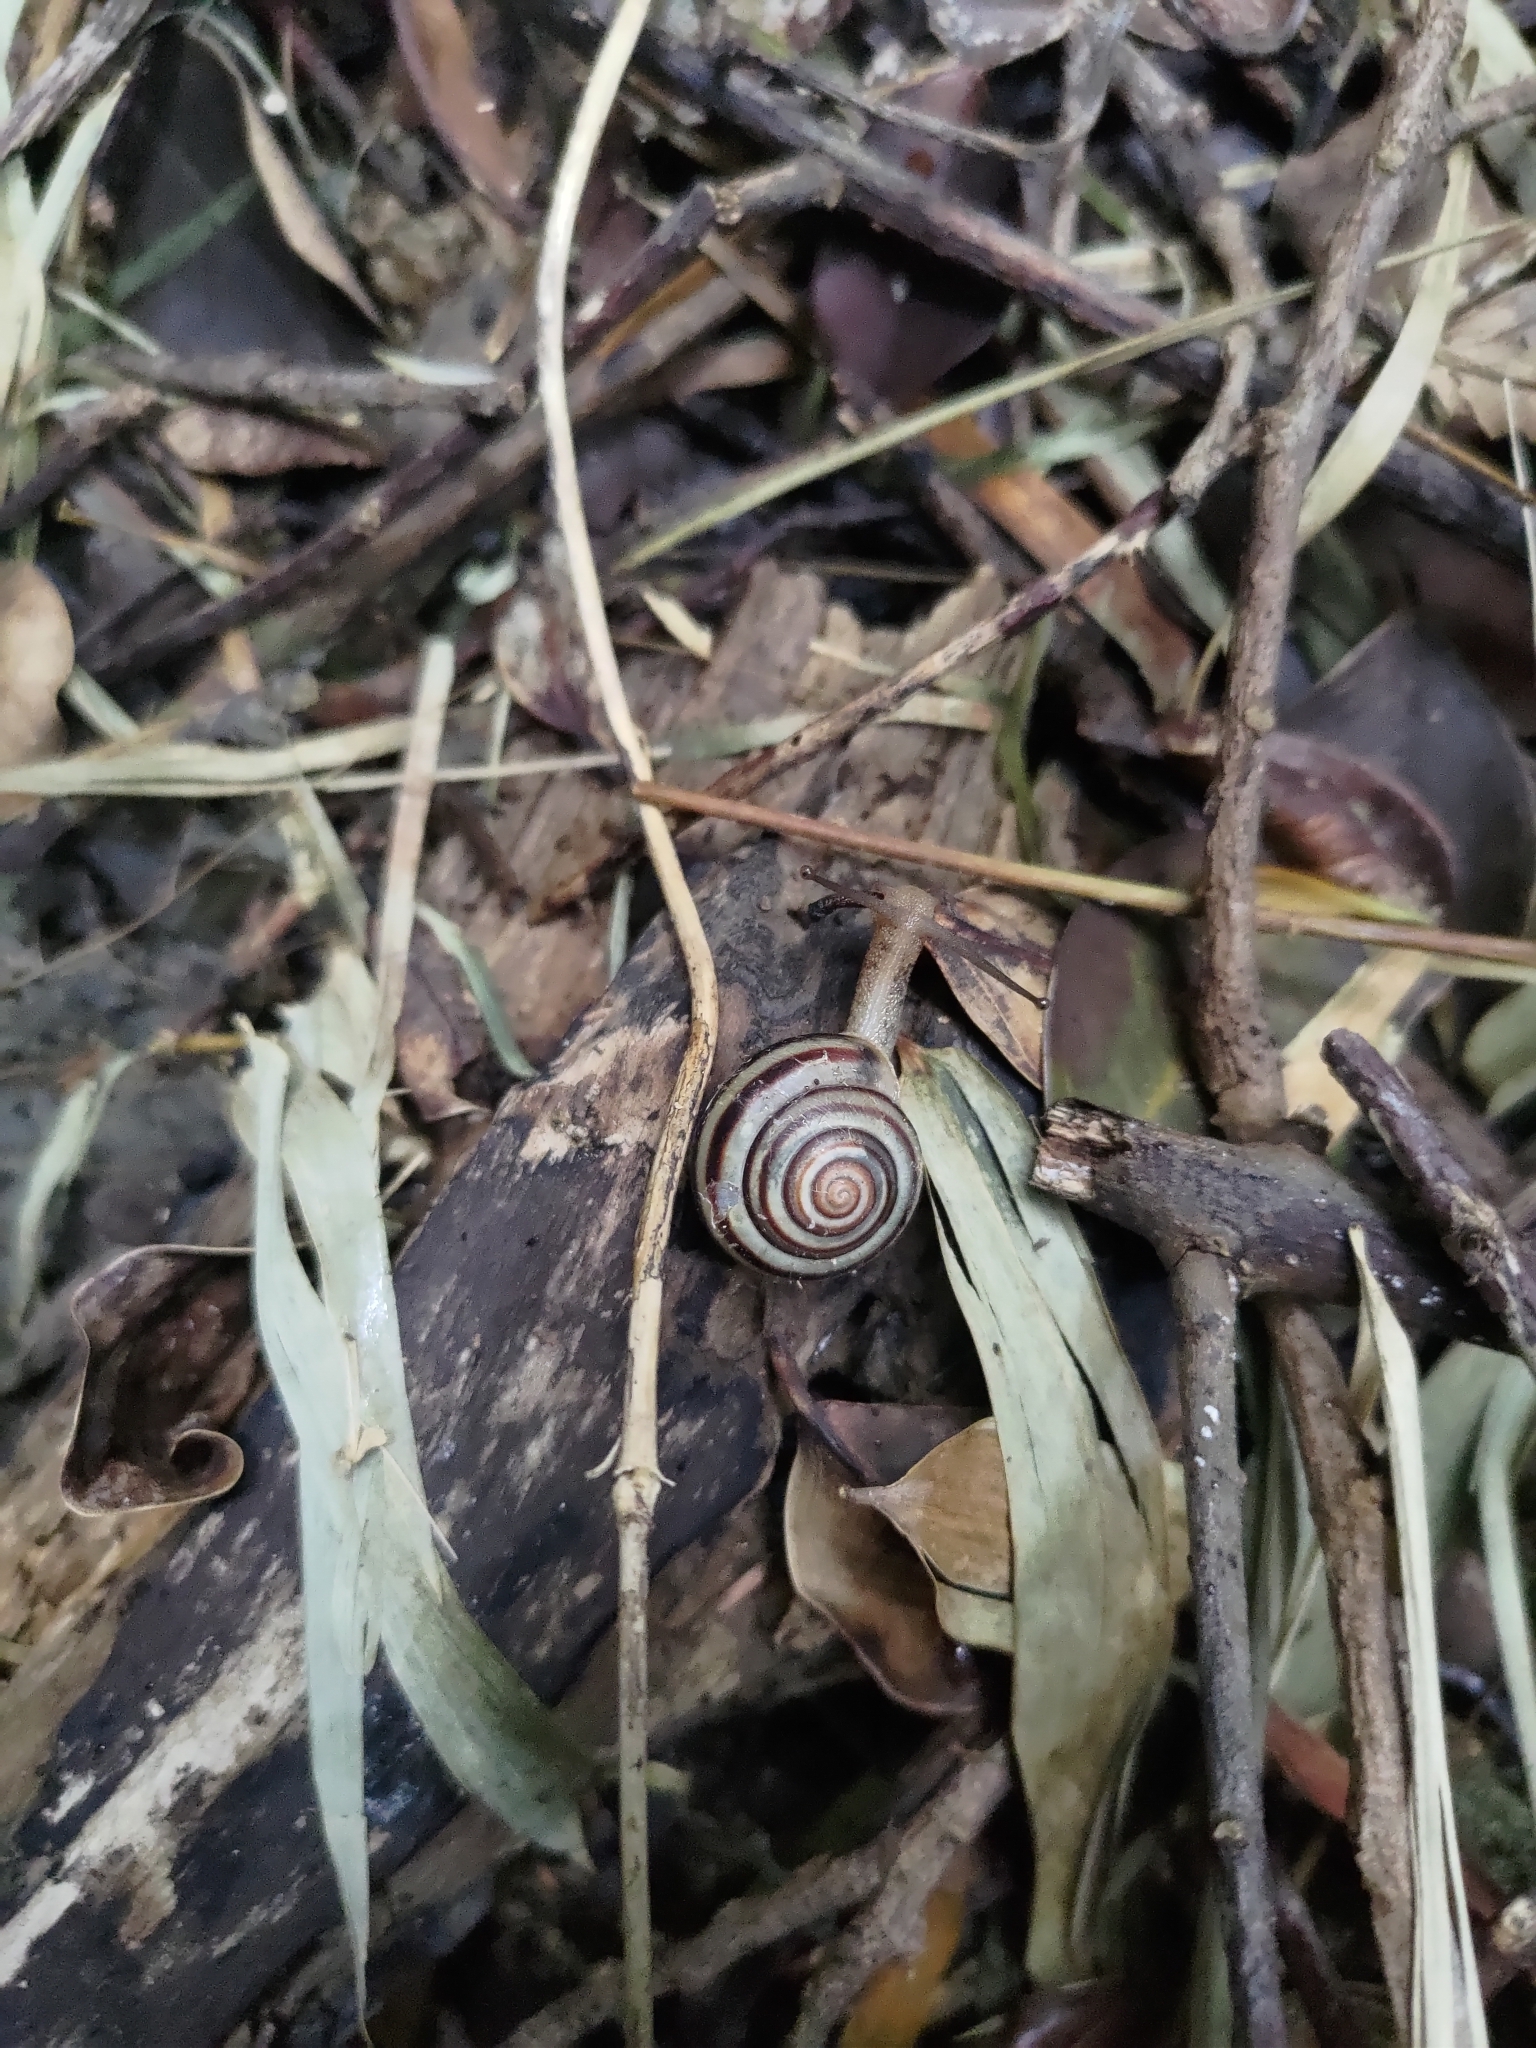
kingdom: Animalia
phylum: Mollusca
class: Gastropoda
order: Stylommatophora
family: Camaenidae
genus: Satsuma
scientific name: Satsuma bacca
